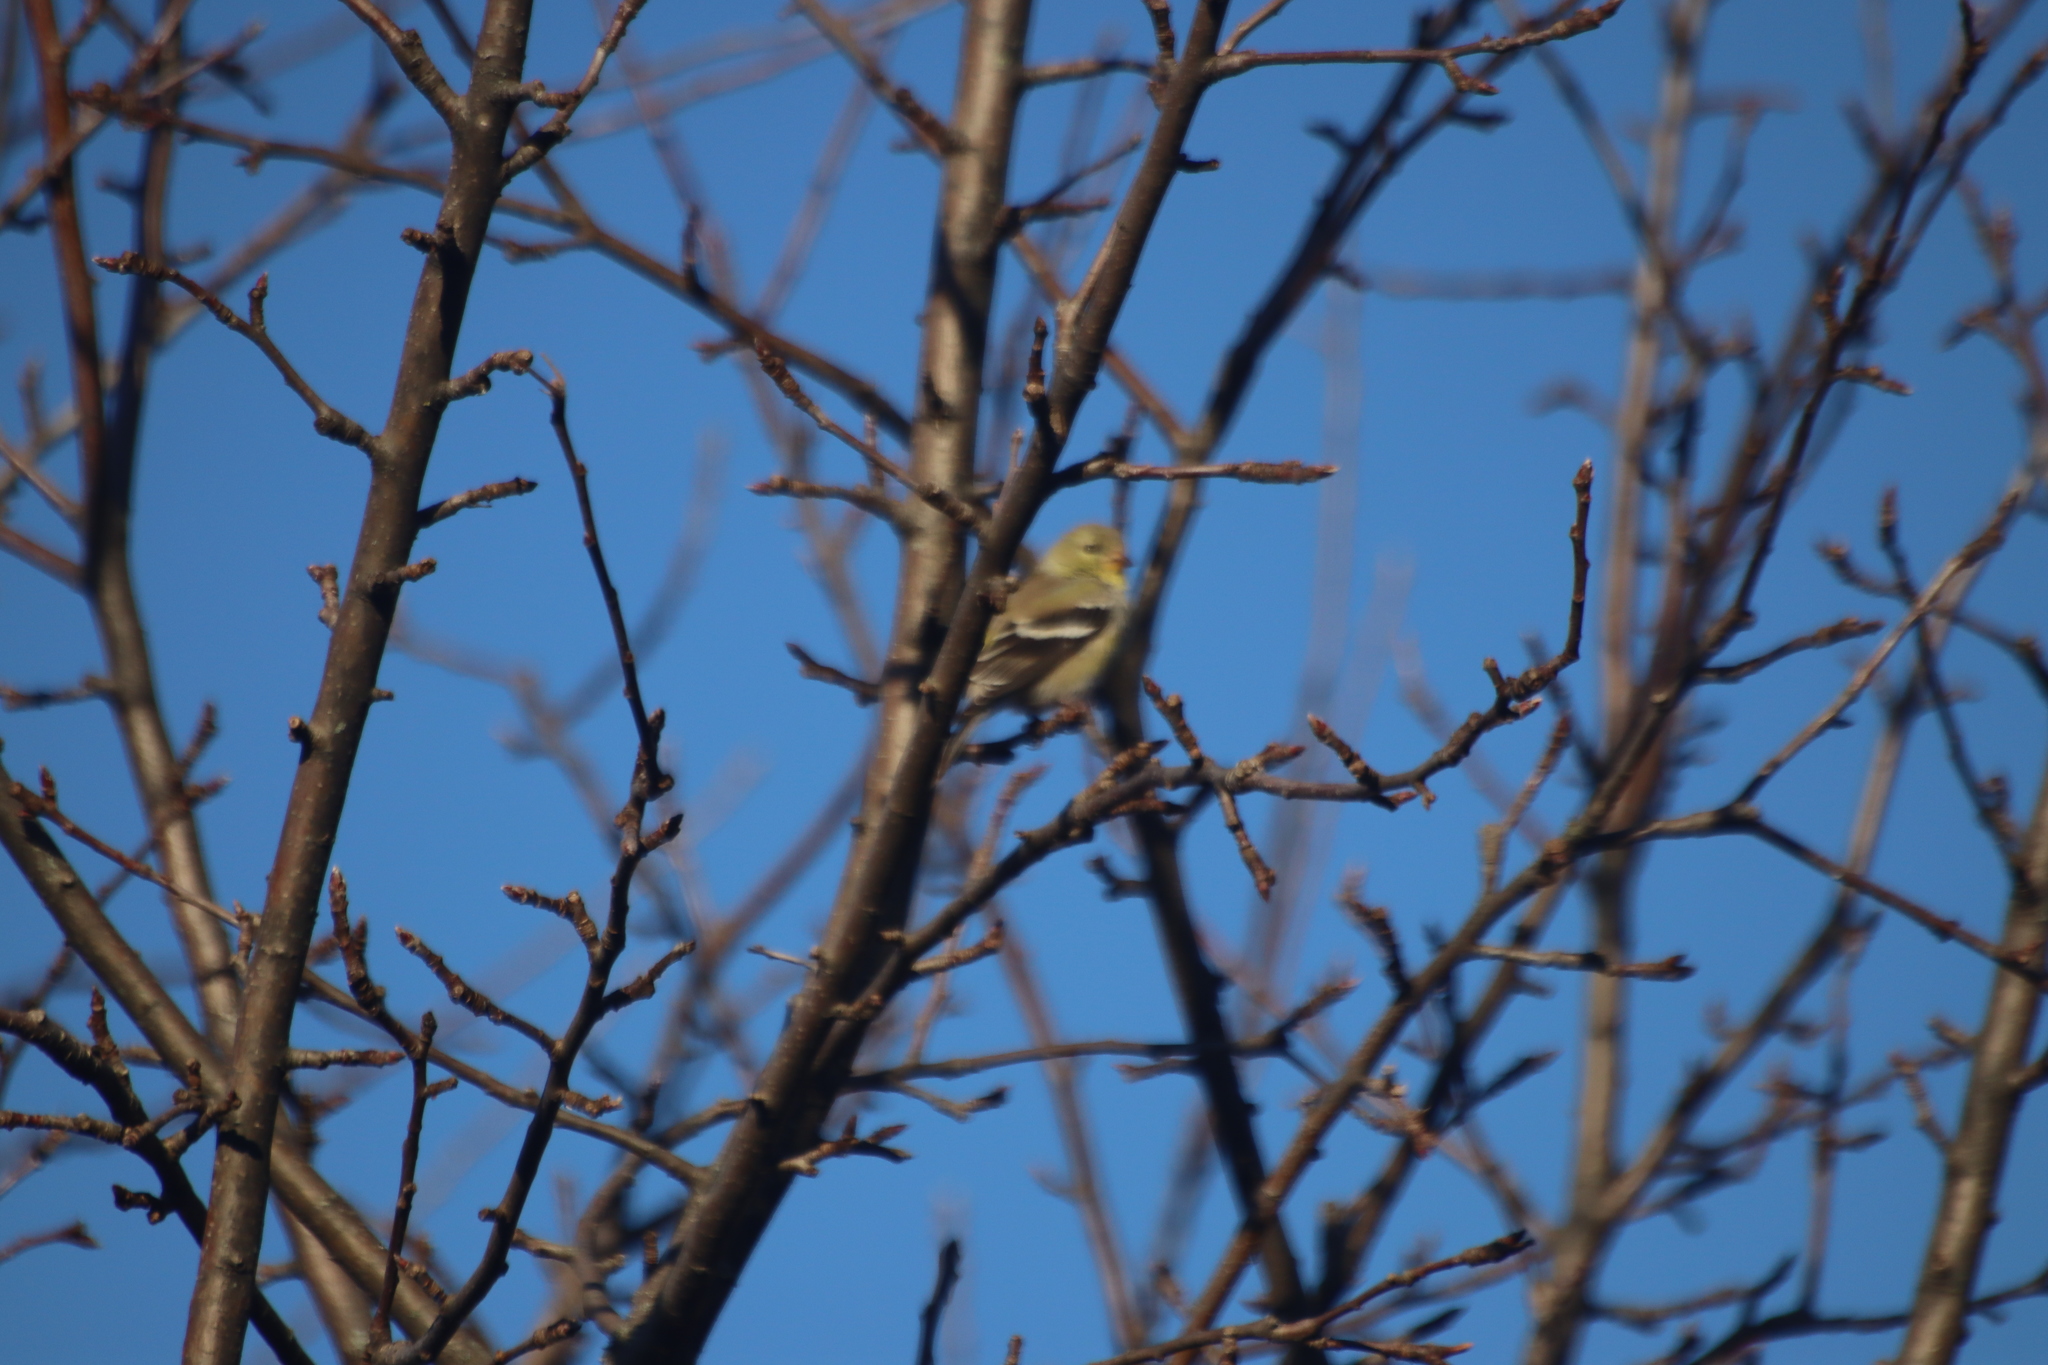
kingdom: Animalia
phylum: Chordata
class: Aves
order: Passeriformes
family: Fringillidae
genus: Spinus
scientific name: Spinus tristis
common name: American goldfinch
